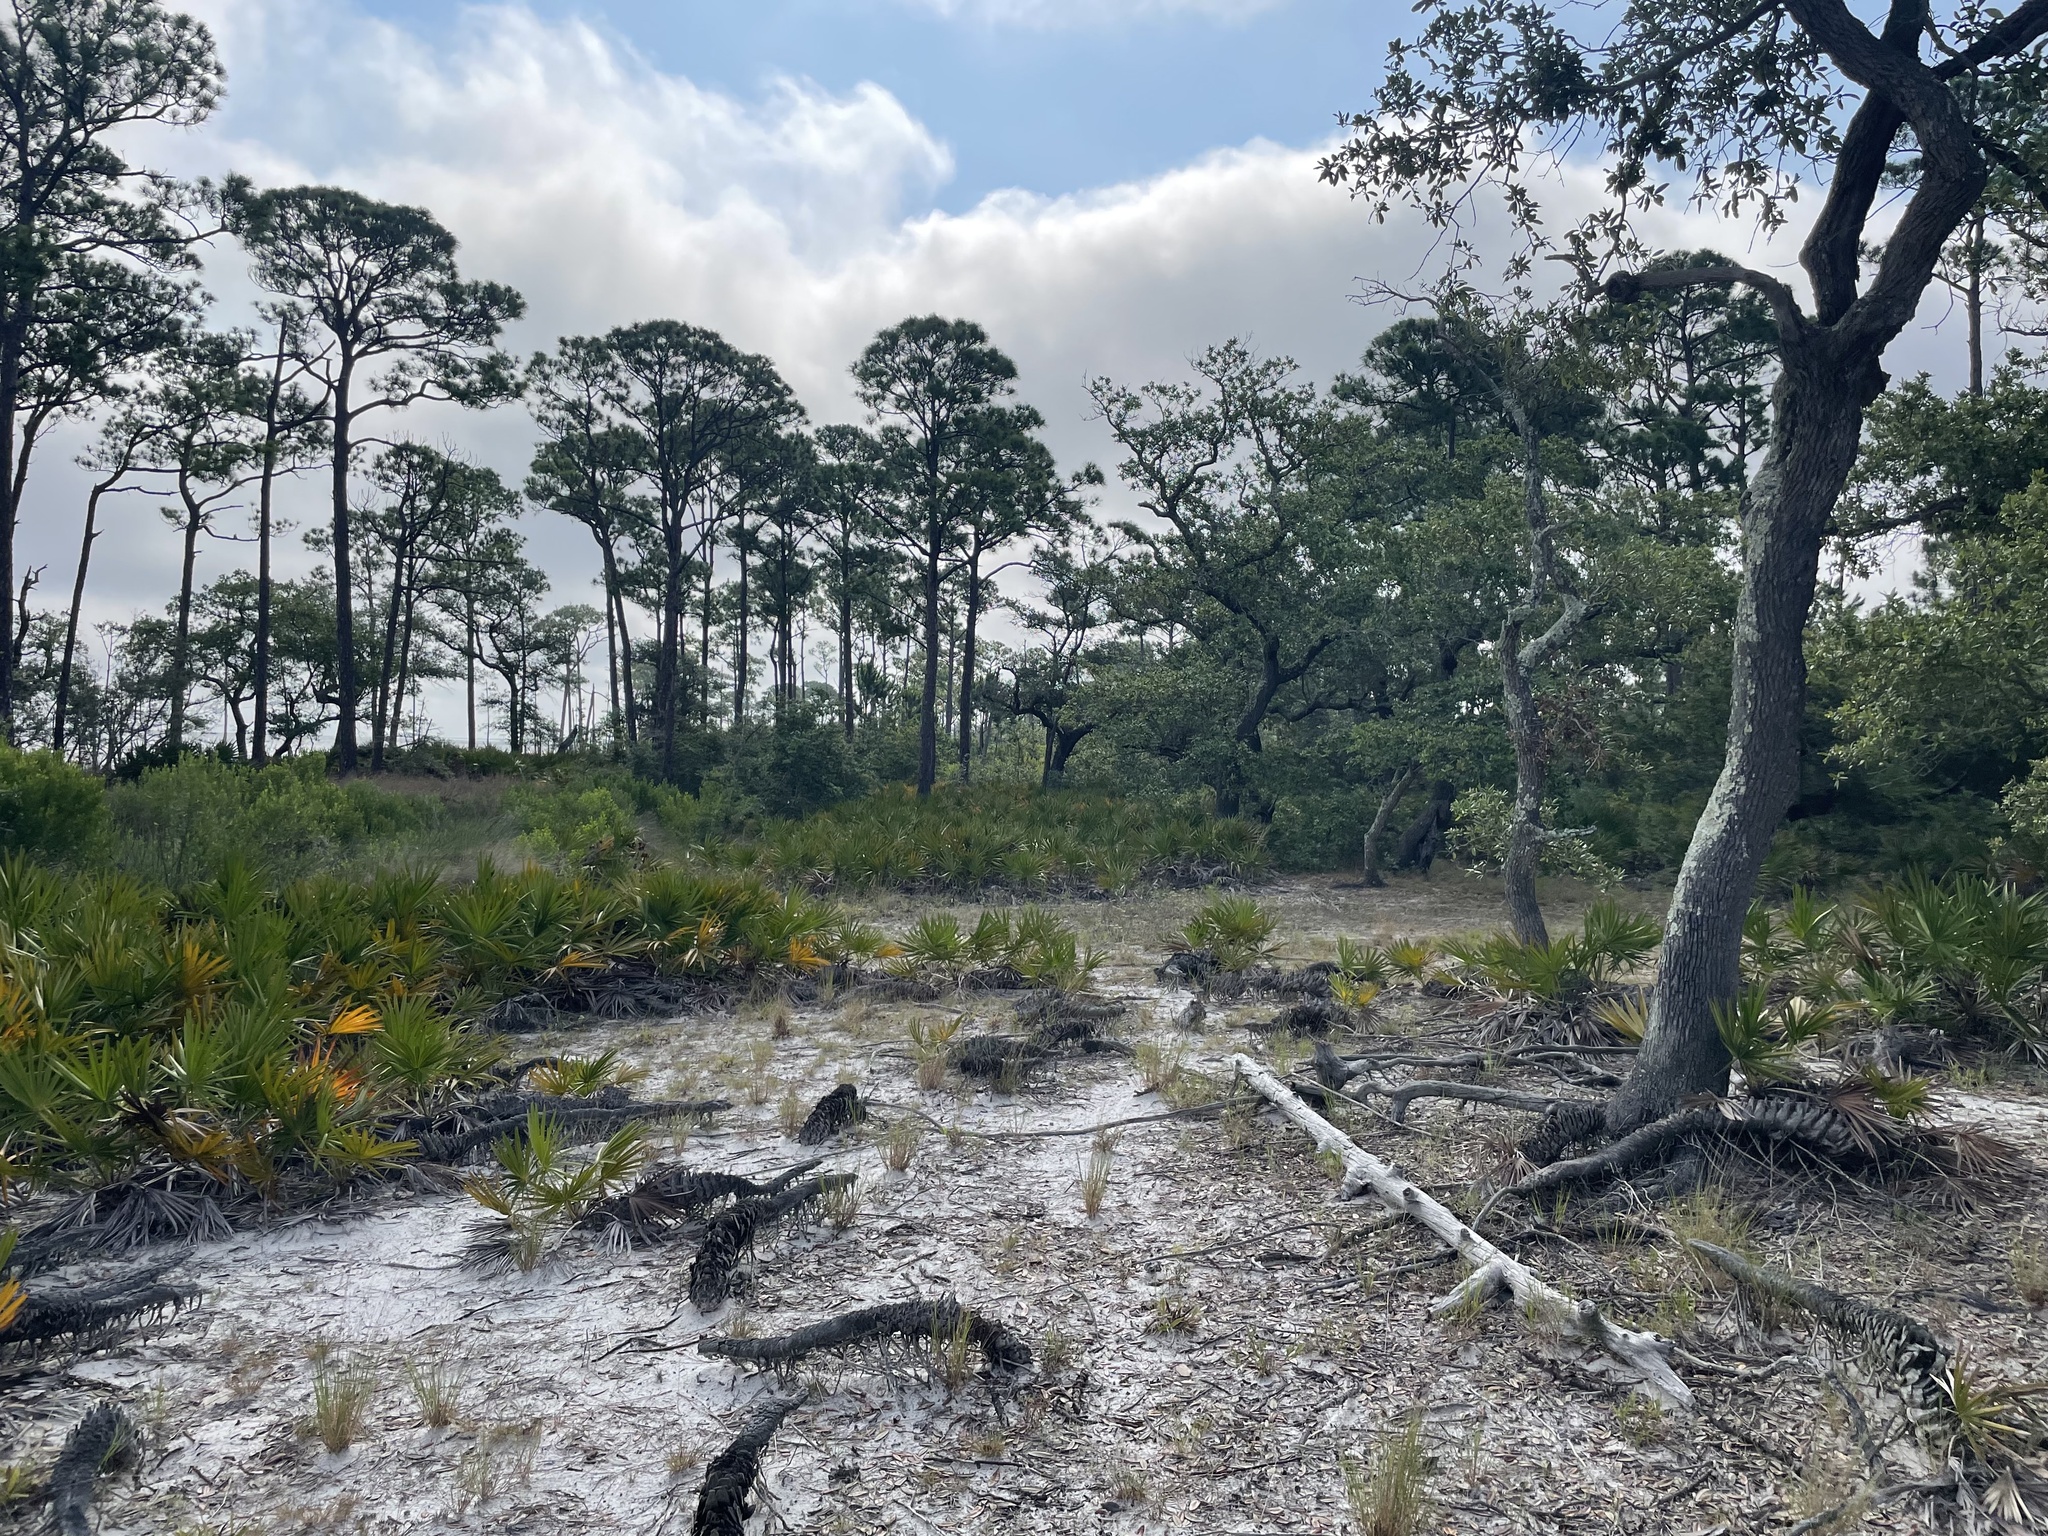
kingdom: Plantae
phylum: Tracheophyta
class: Liliopsida
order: Arecales
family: Arecaceae
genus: Serenoa
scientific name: Serenoa repens
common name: Saw-palmetto
